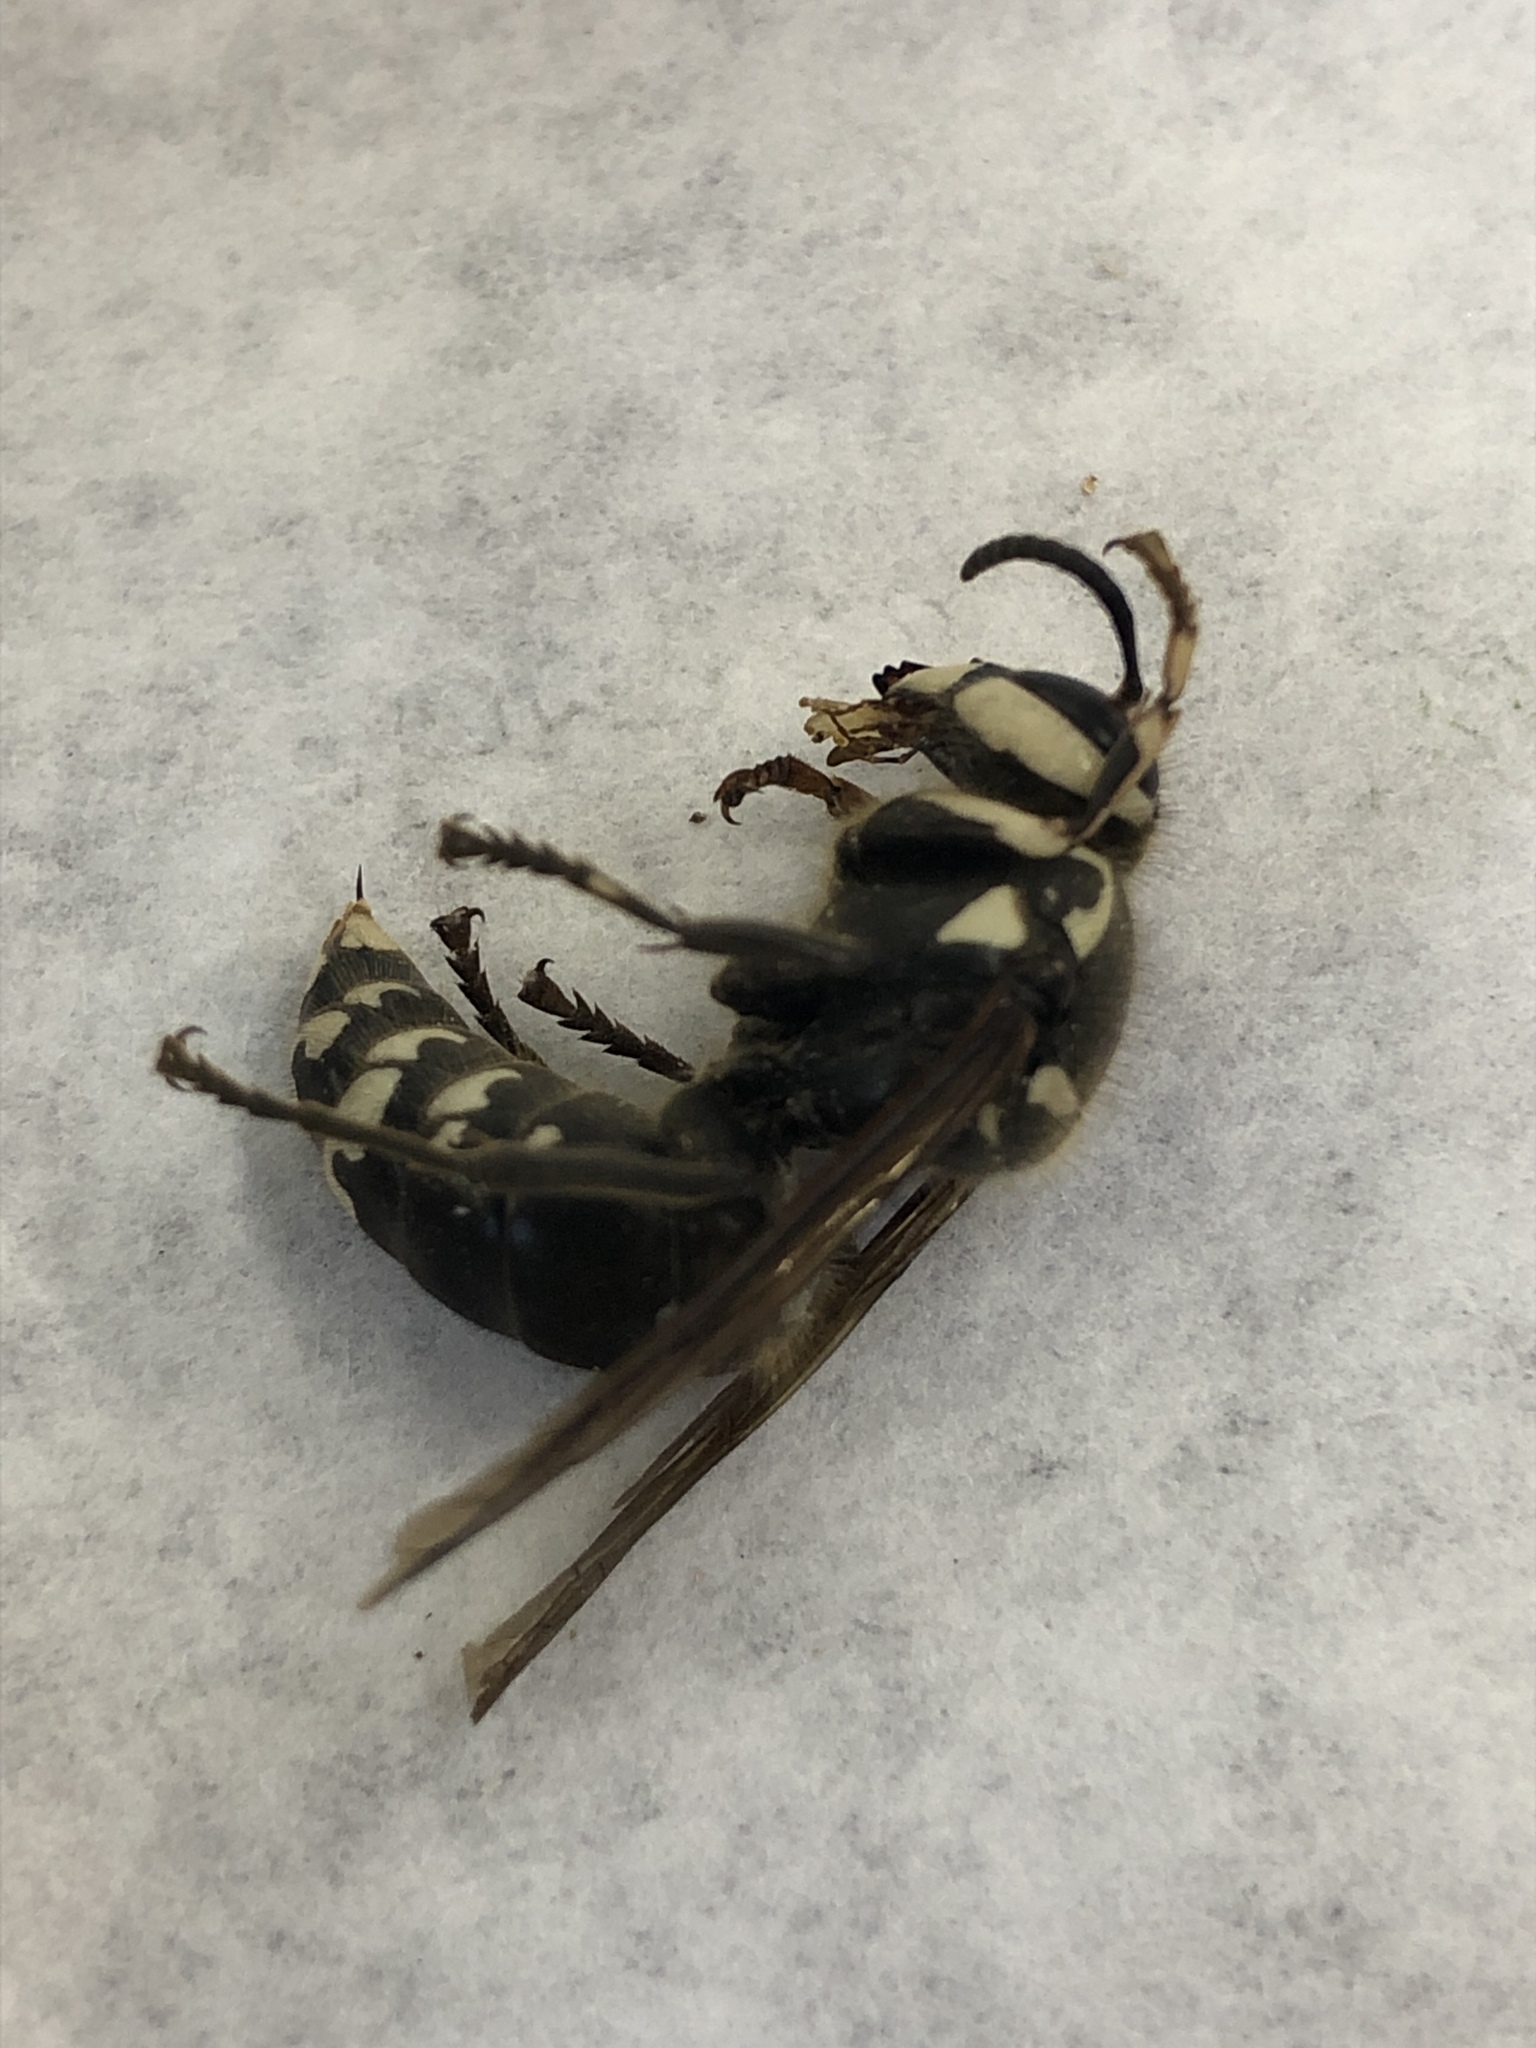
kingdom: Animalia
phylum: Arthropoda
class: Insecta
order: Hymenoptera
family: Vespidae
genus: Dolichovespula
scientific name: Dolichovespula maculata
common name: Bald-faced hornet
